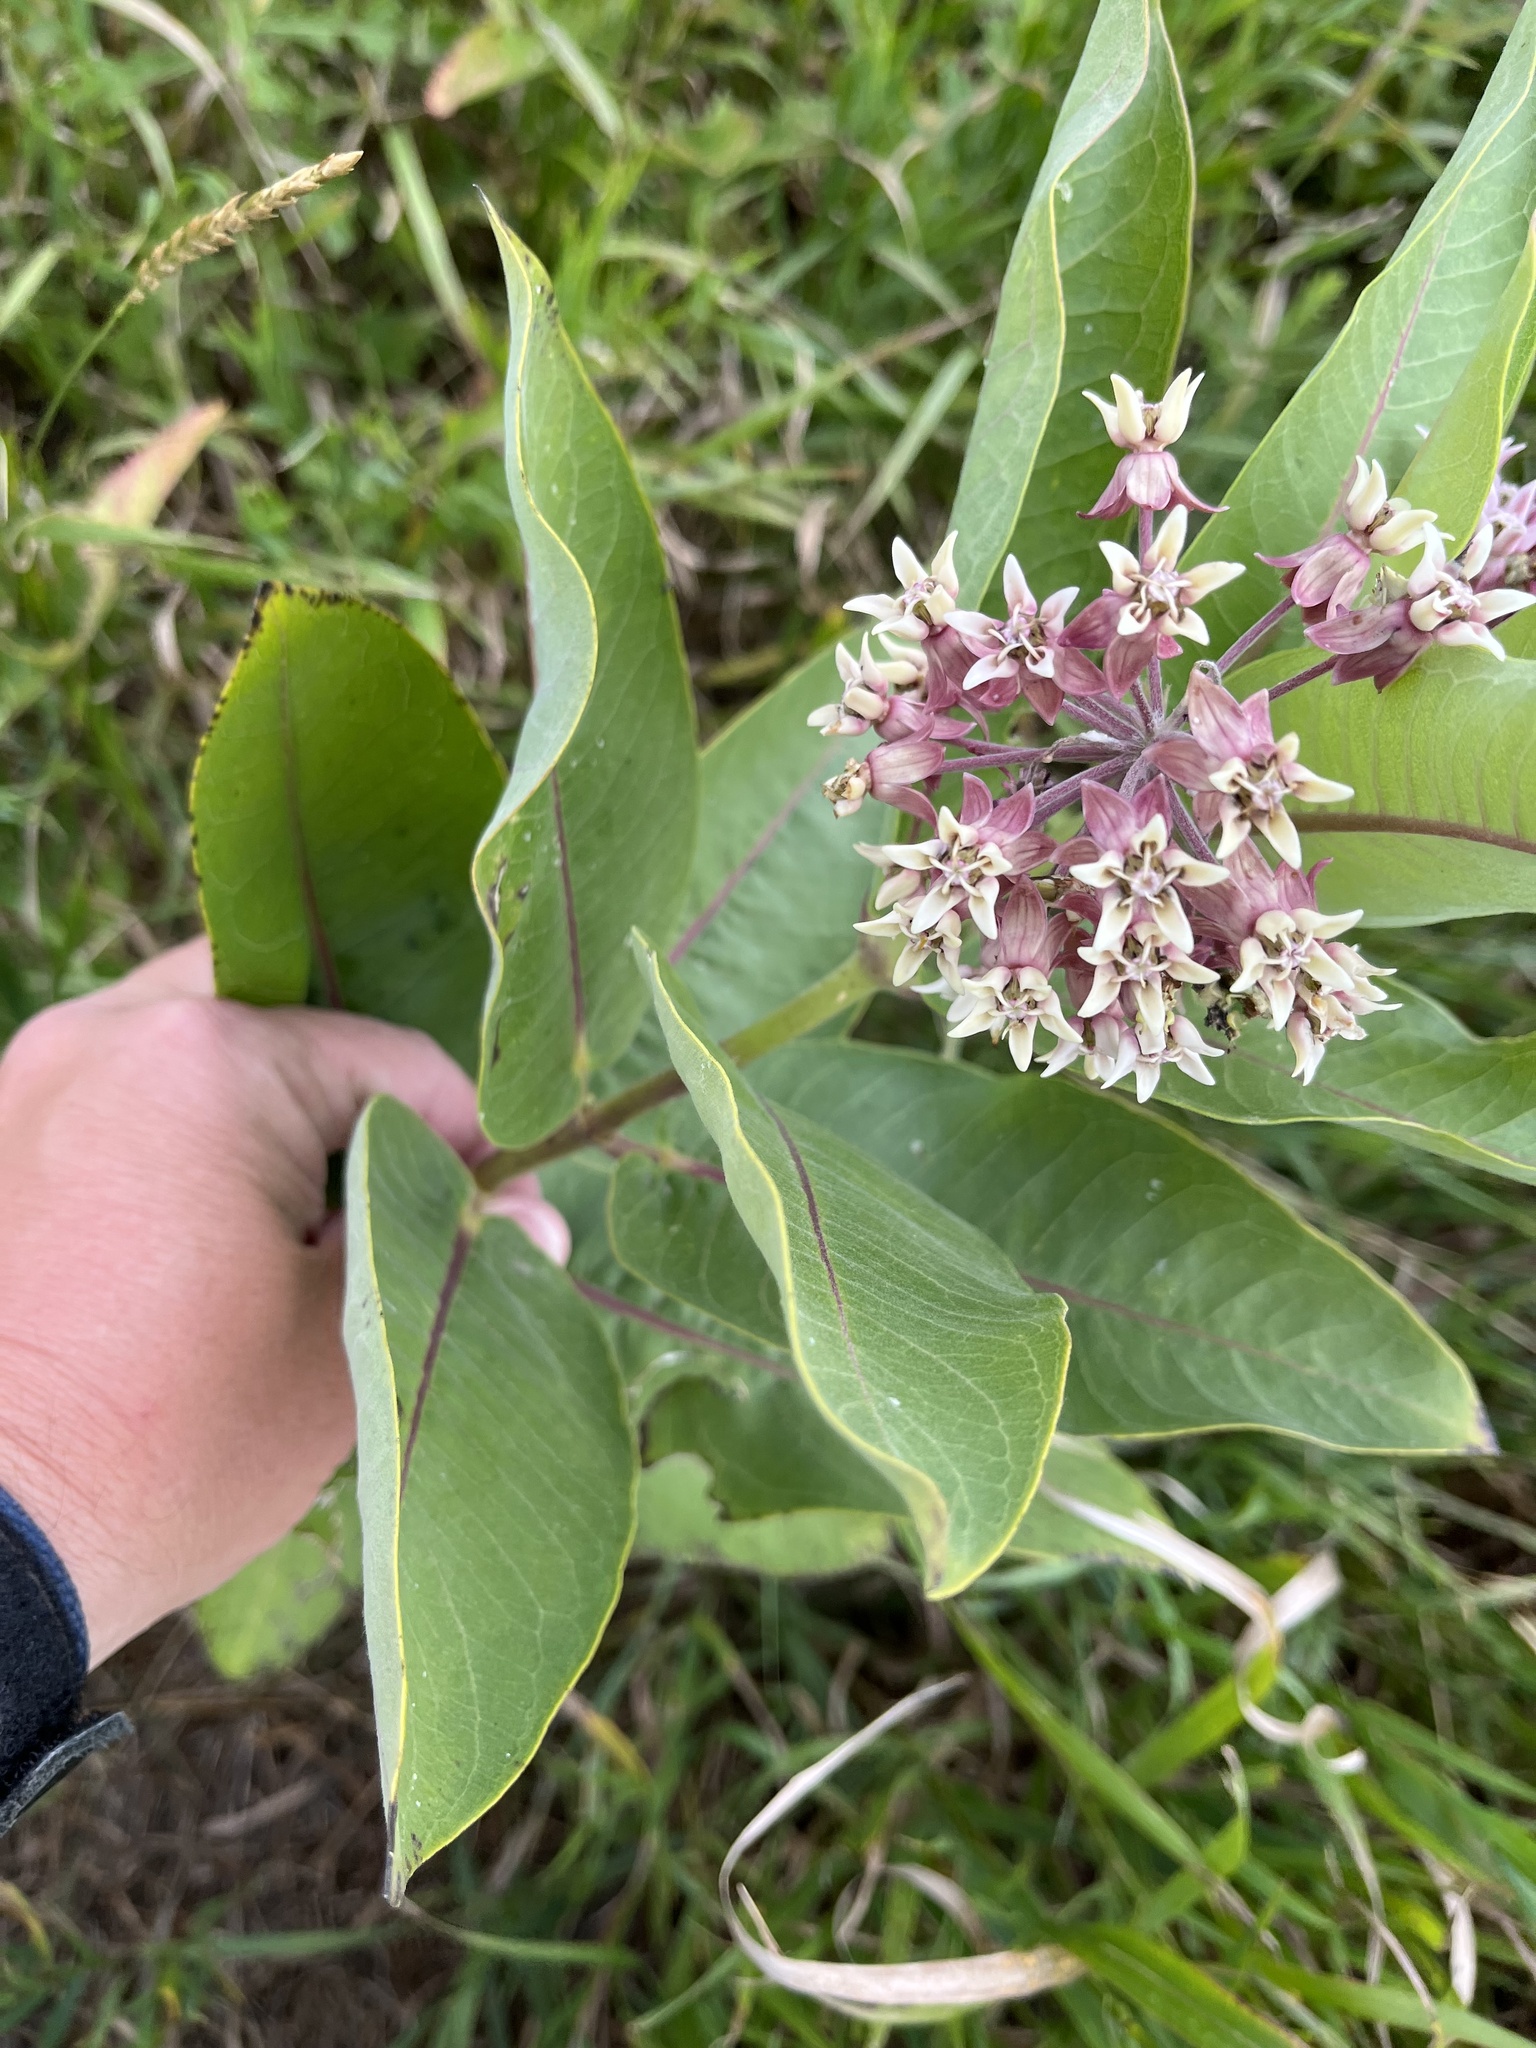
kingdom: Plantae
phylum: Tracheophyta
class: Magnoliopsida
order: Gentianales
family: Apocynaceae
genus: Asclepias
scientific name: Asclepias syriaca
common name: Common milkweed
